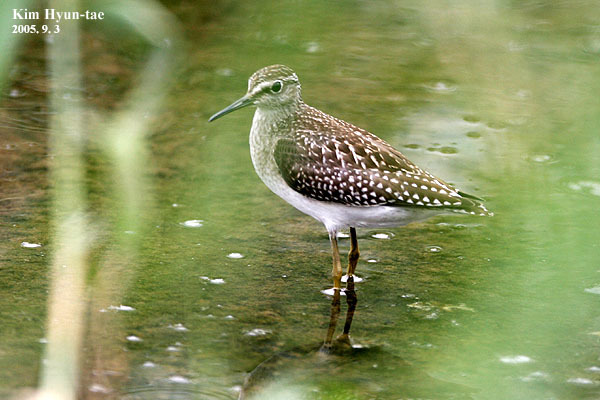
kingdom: Animalia
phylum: Chordata
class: Aves
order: Charadriiformes
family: Scolopacidae
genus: Tringa
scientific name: Tringa glareola
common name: Wood sandpiper
